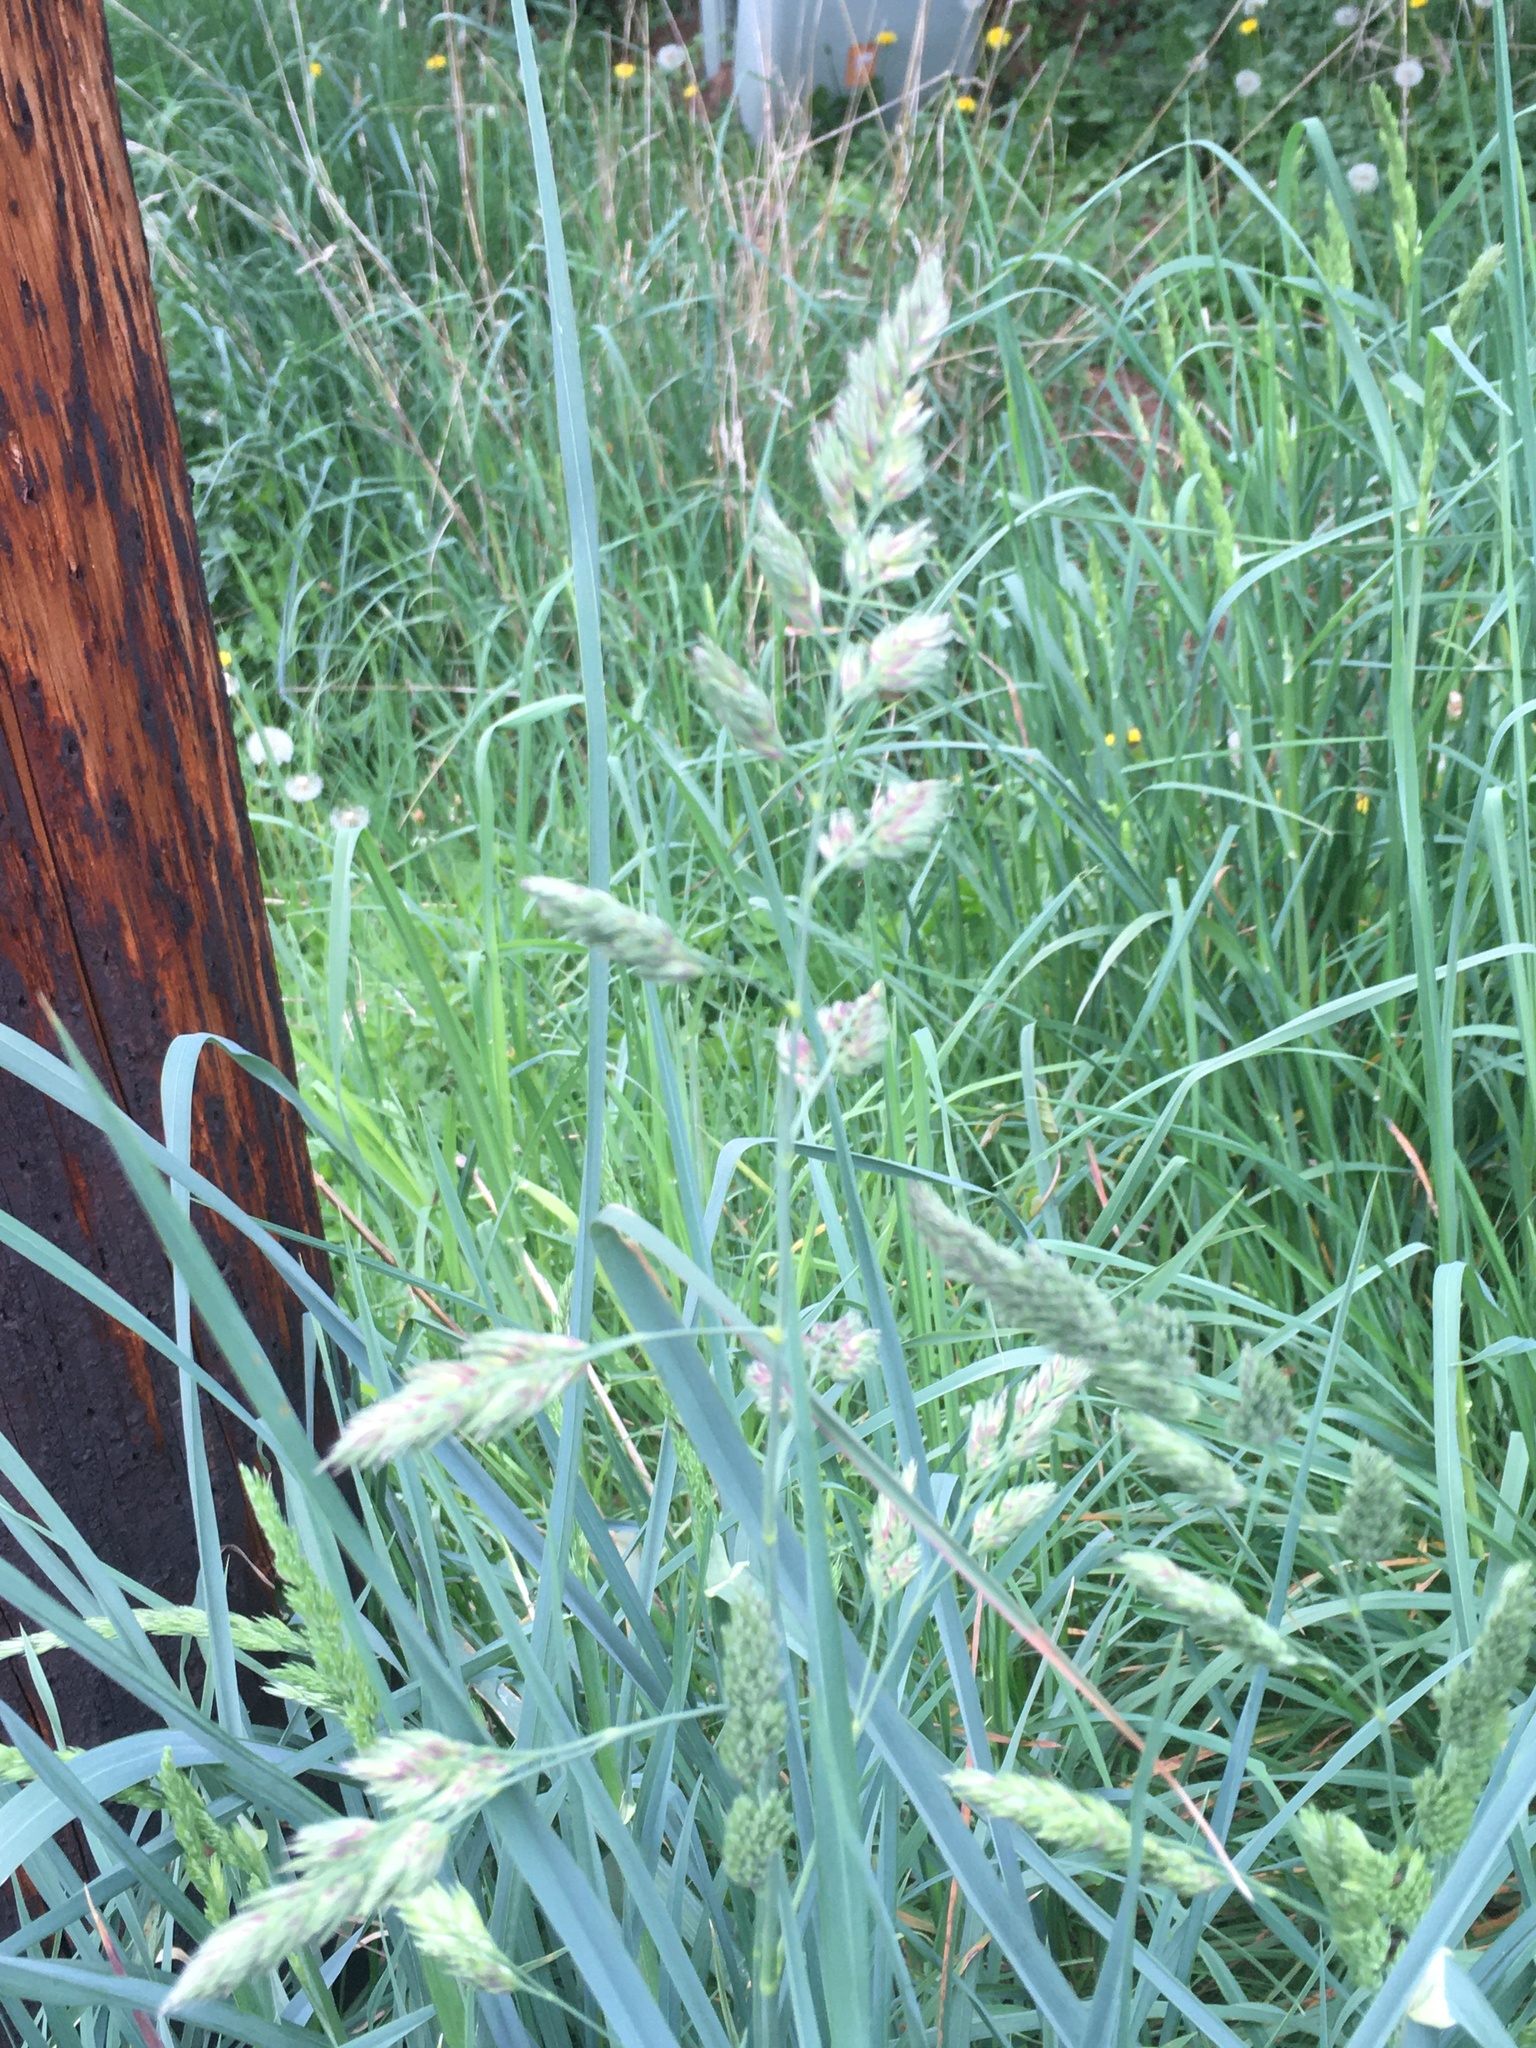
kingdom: Plantae
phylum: Tracheophyta
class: Liliopsida
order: Poales
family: Poaceae
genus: Dactylis
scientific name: Dactylis glomerata
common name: Orchardgrass
